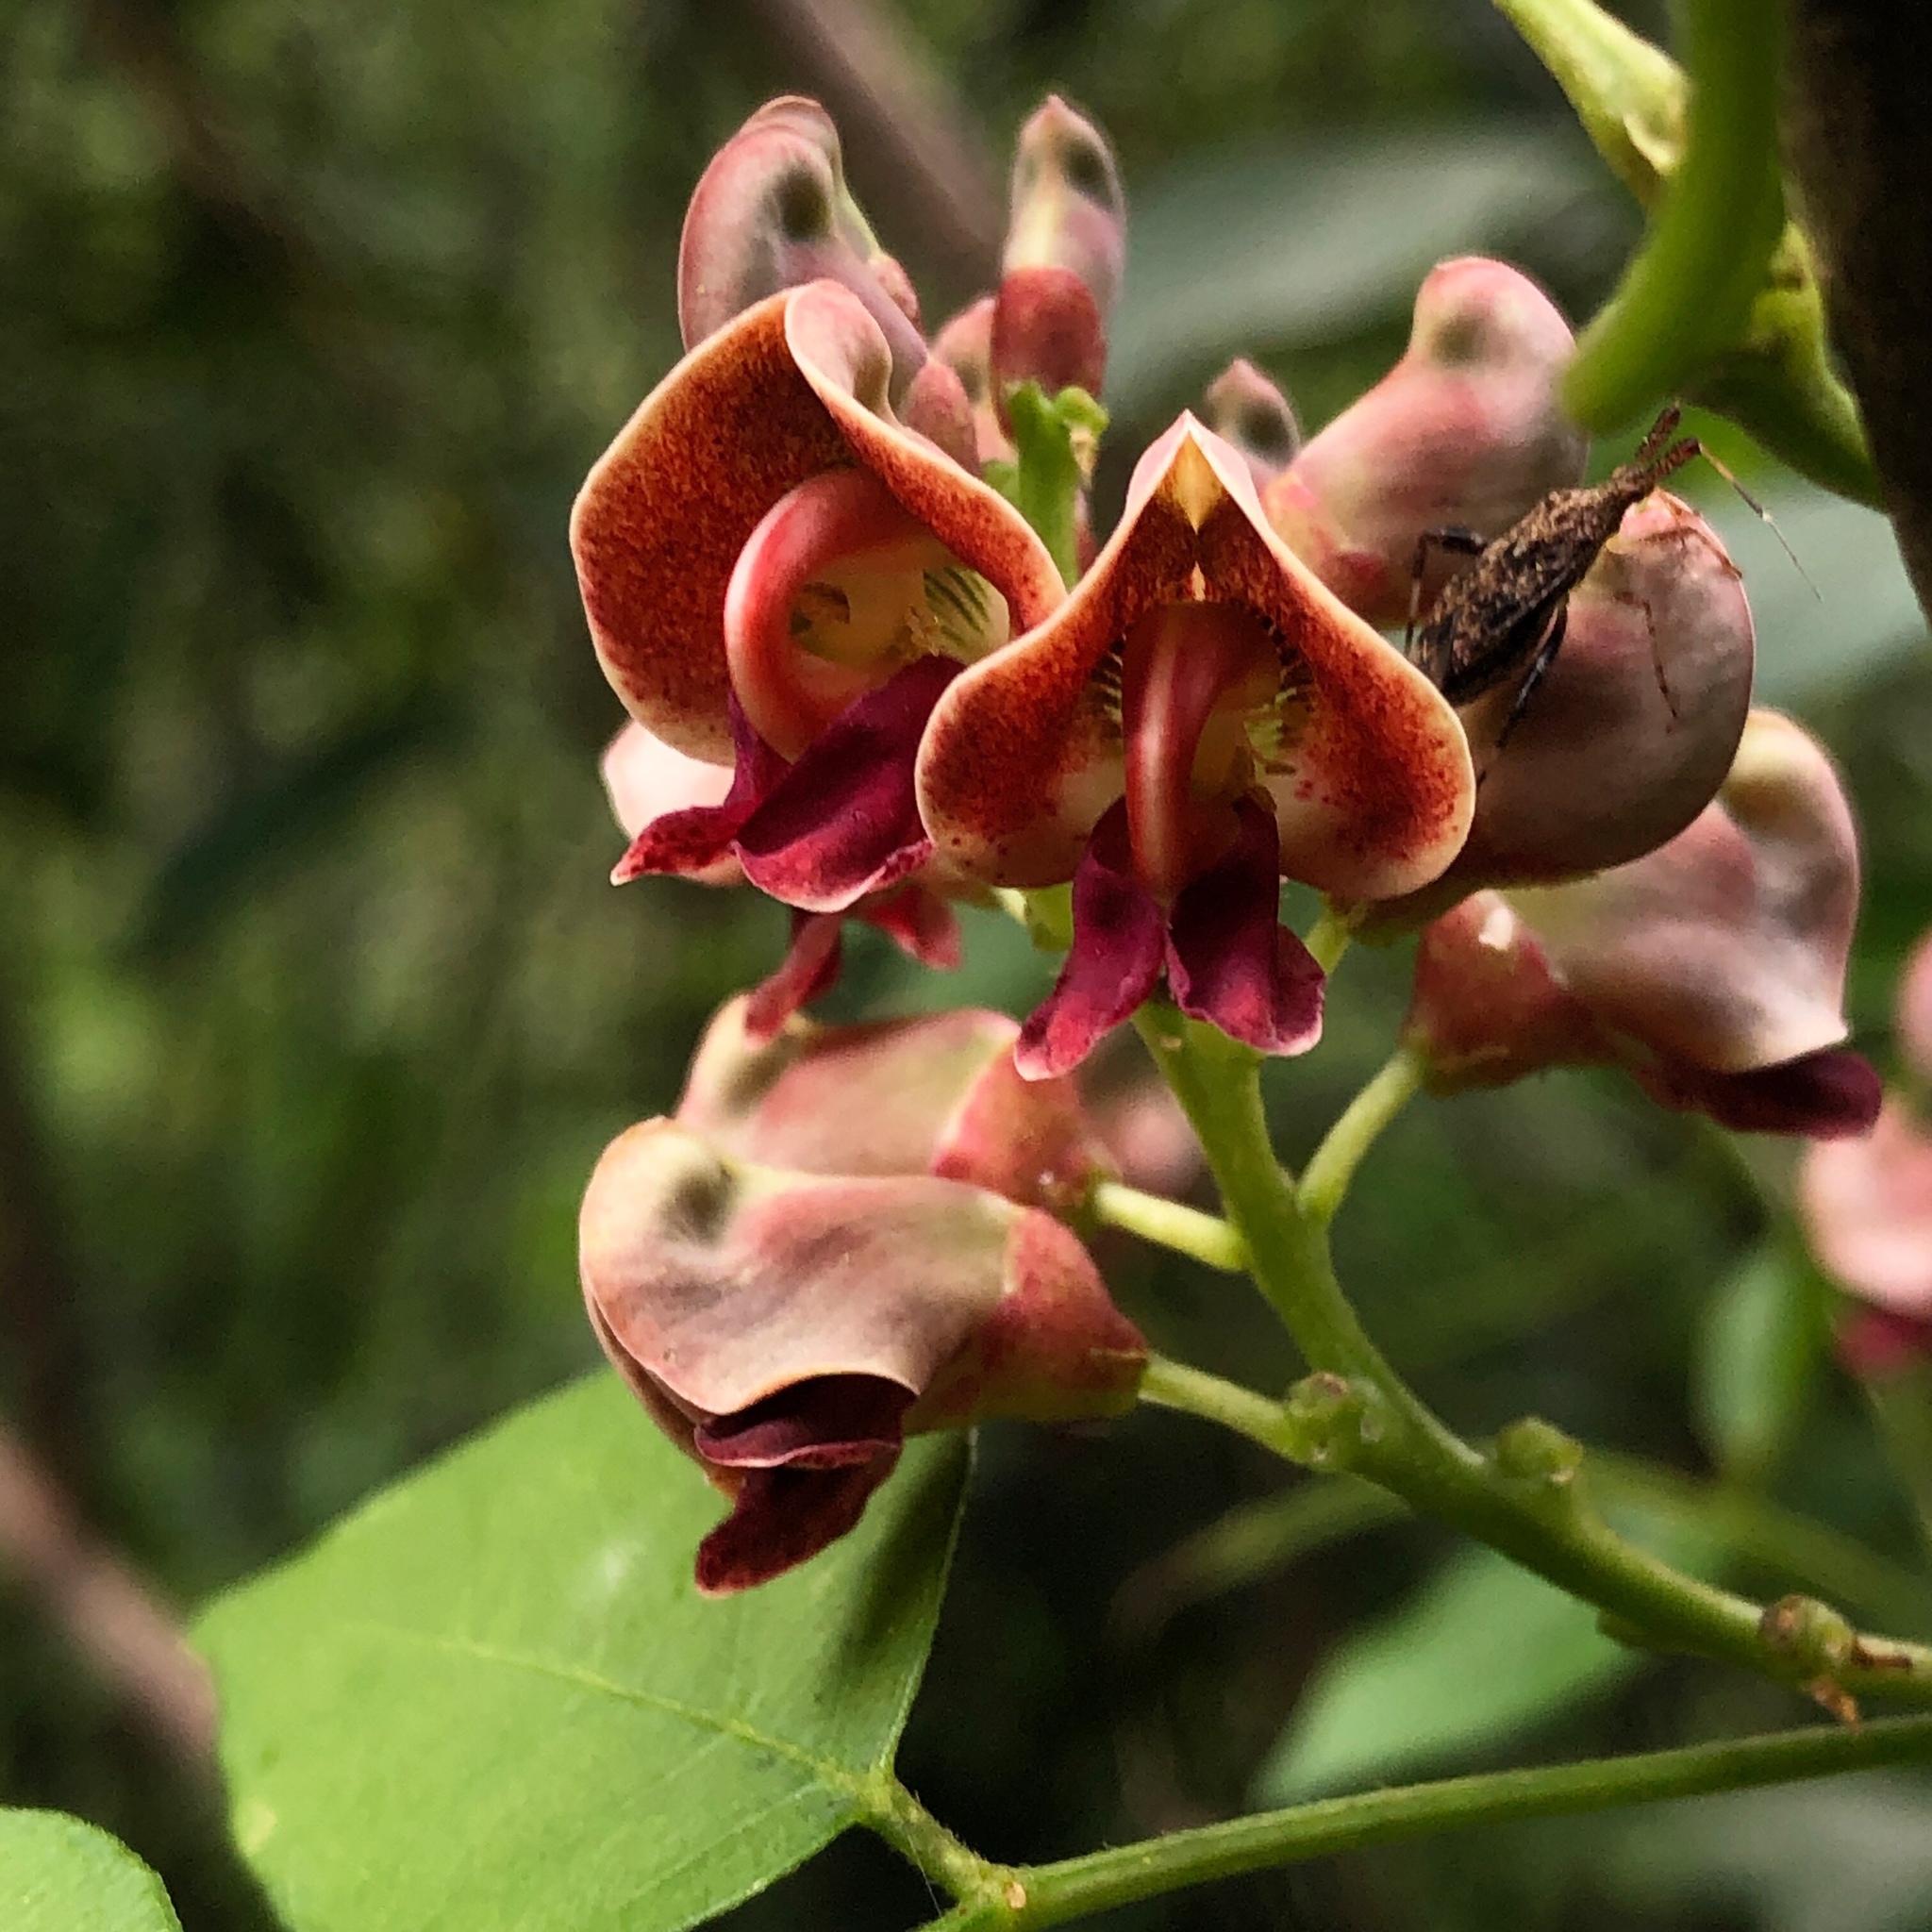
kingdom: Plantae
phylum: Tracheophyta
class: Magnoliopsida
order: Fabales
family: Fabaceae
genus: Apios
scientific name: Apios americana
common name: American potato-bean
